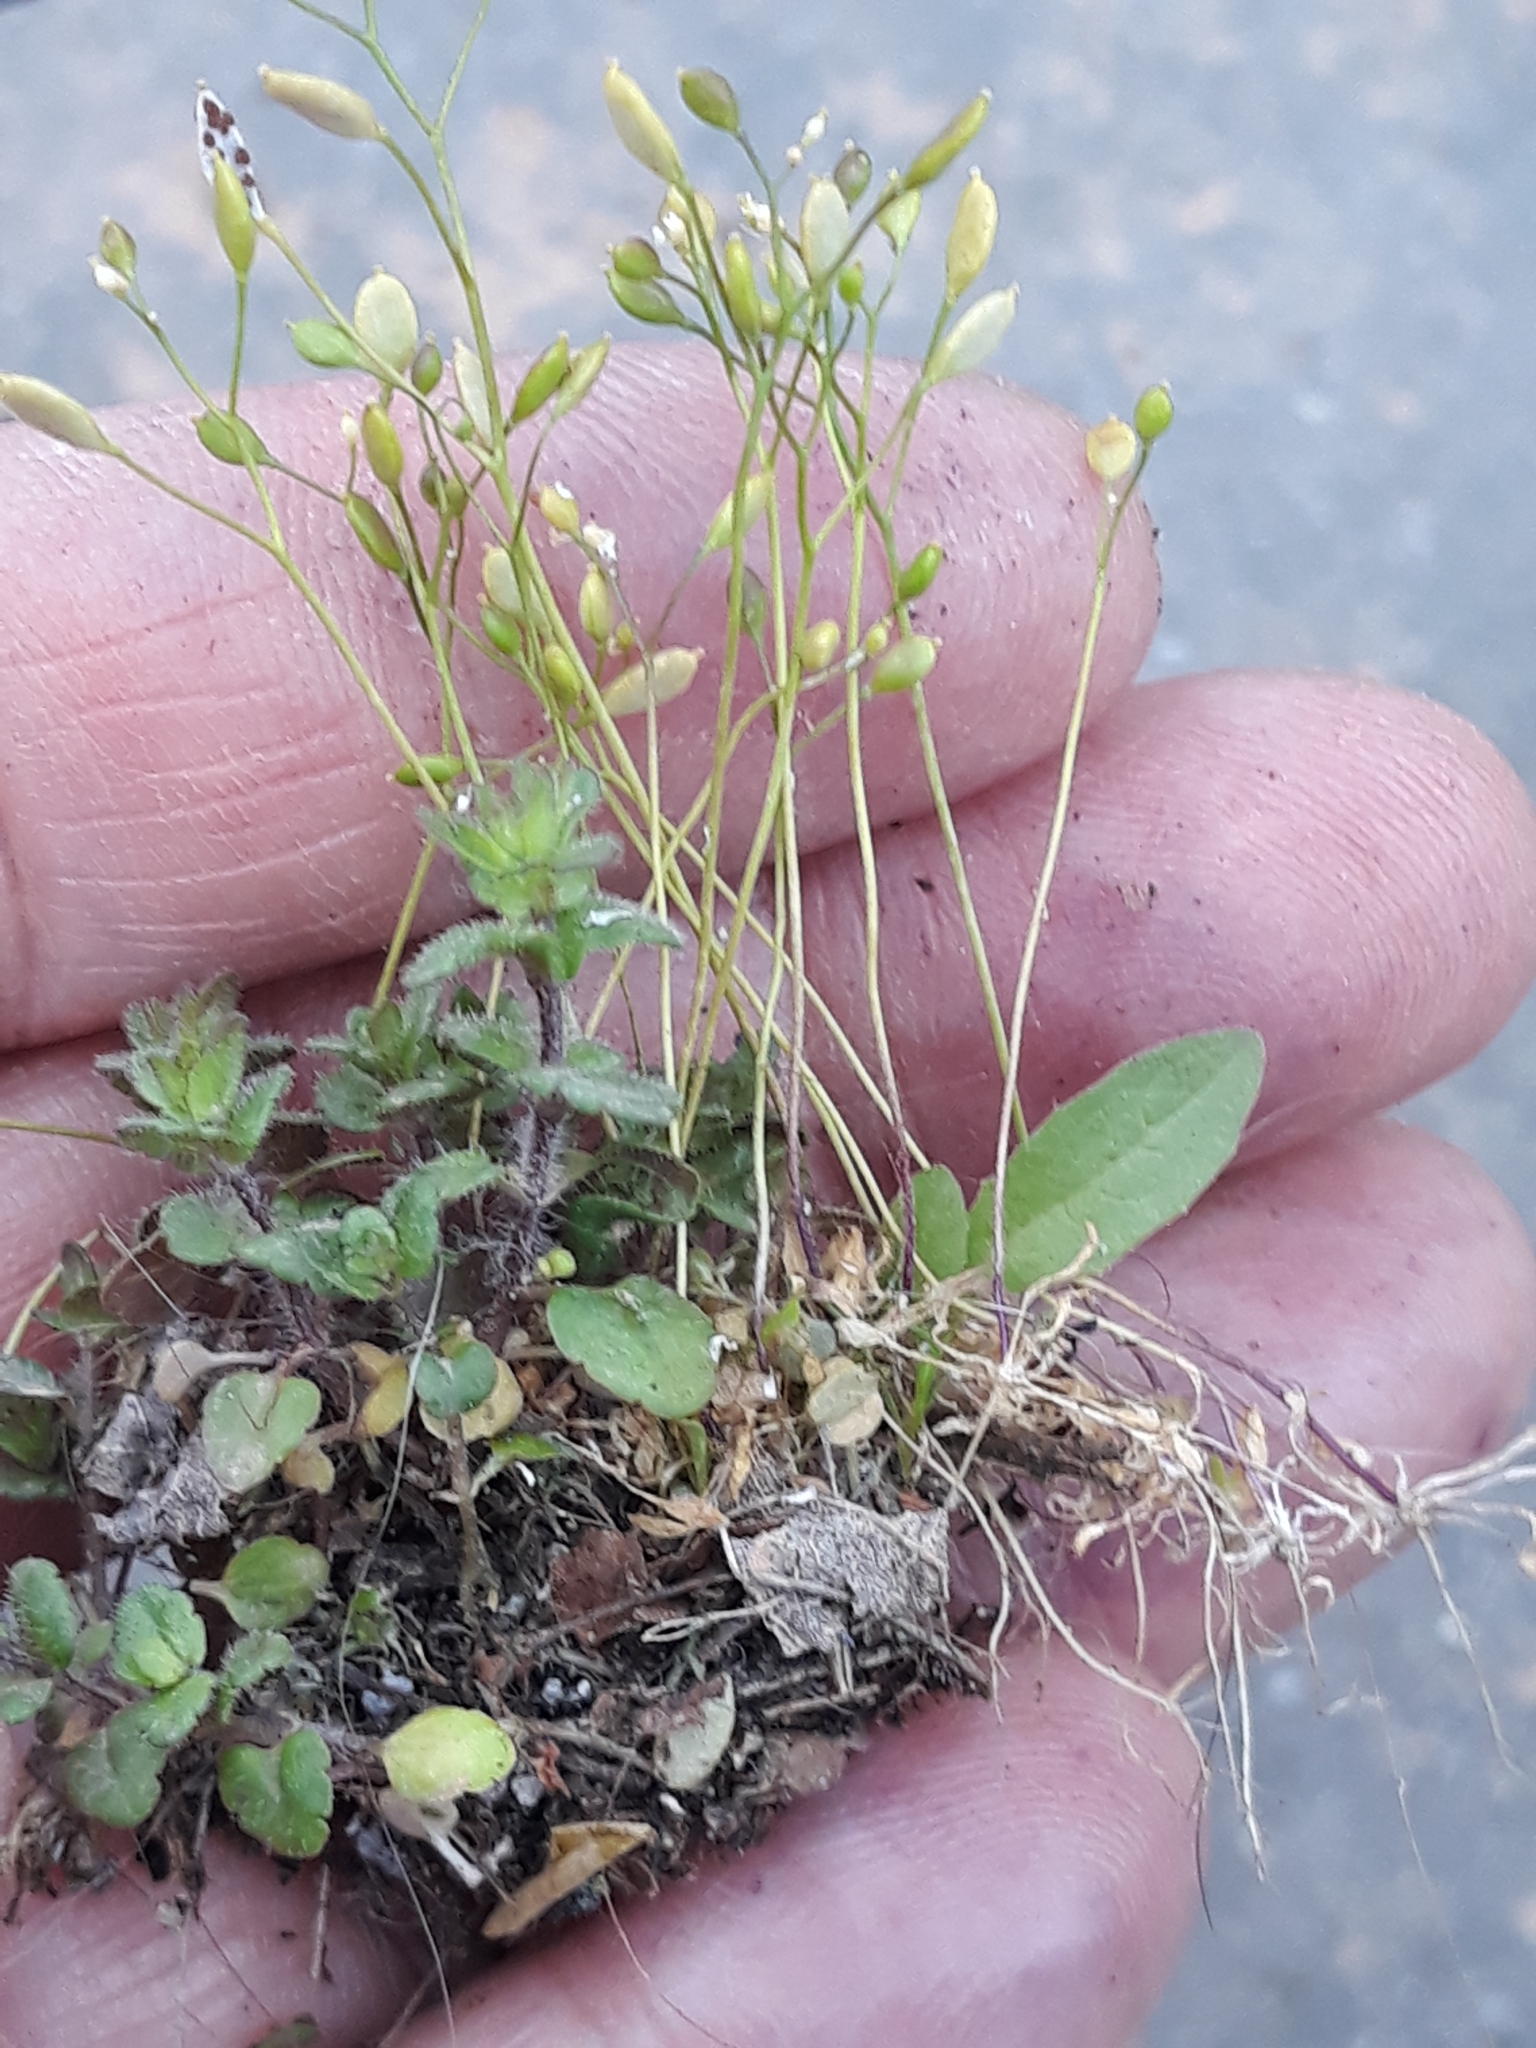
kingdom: Plantae
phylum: Tracheophyta
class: Magnoliopsida
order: Brassicales
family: Brassicaceae
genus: Draba
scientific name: Draba verna
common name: Spring draba
